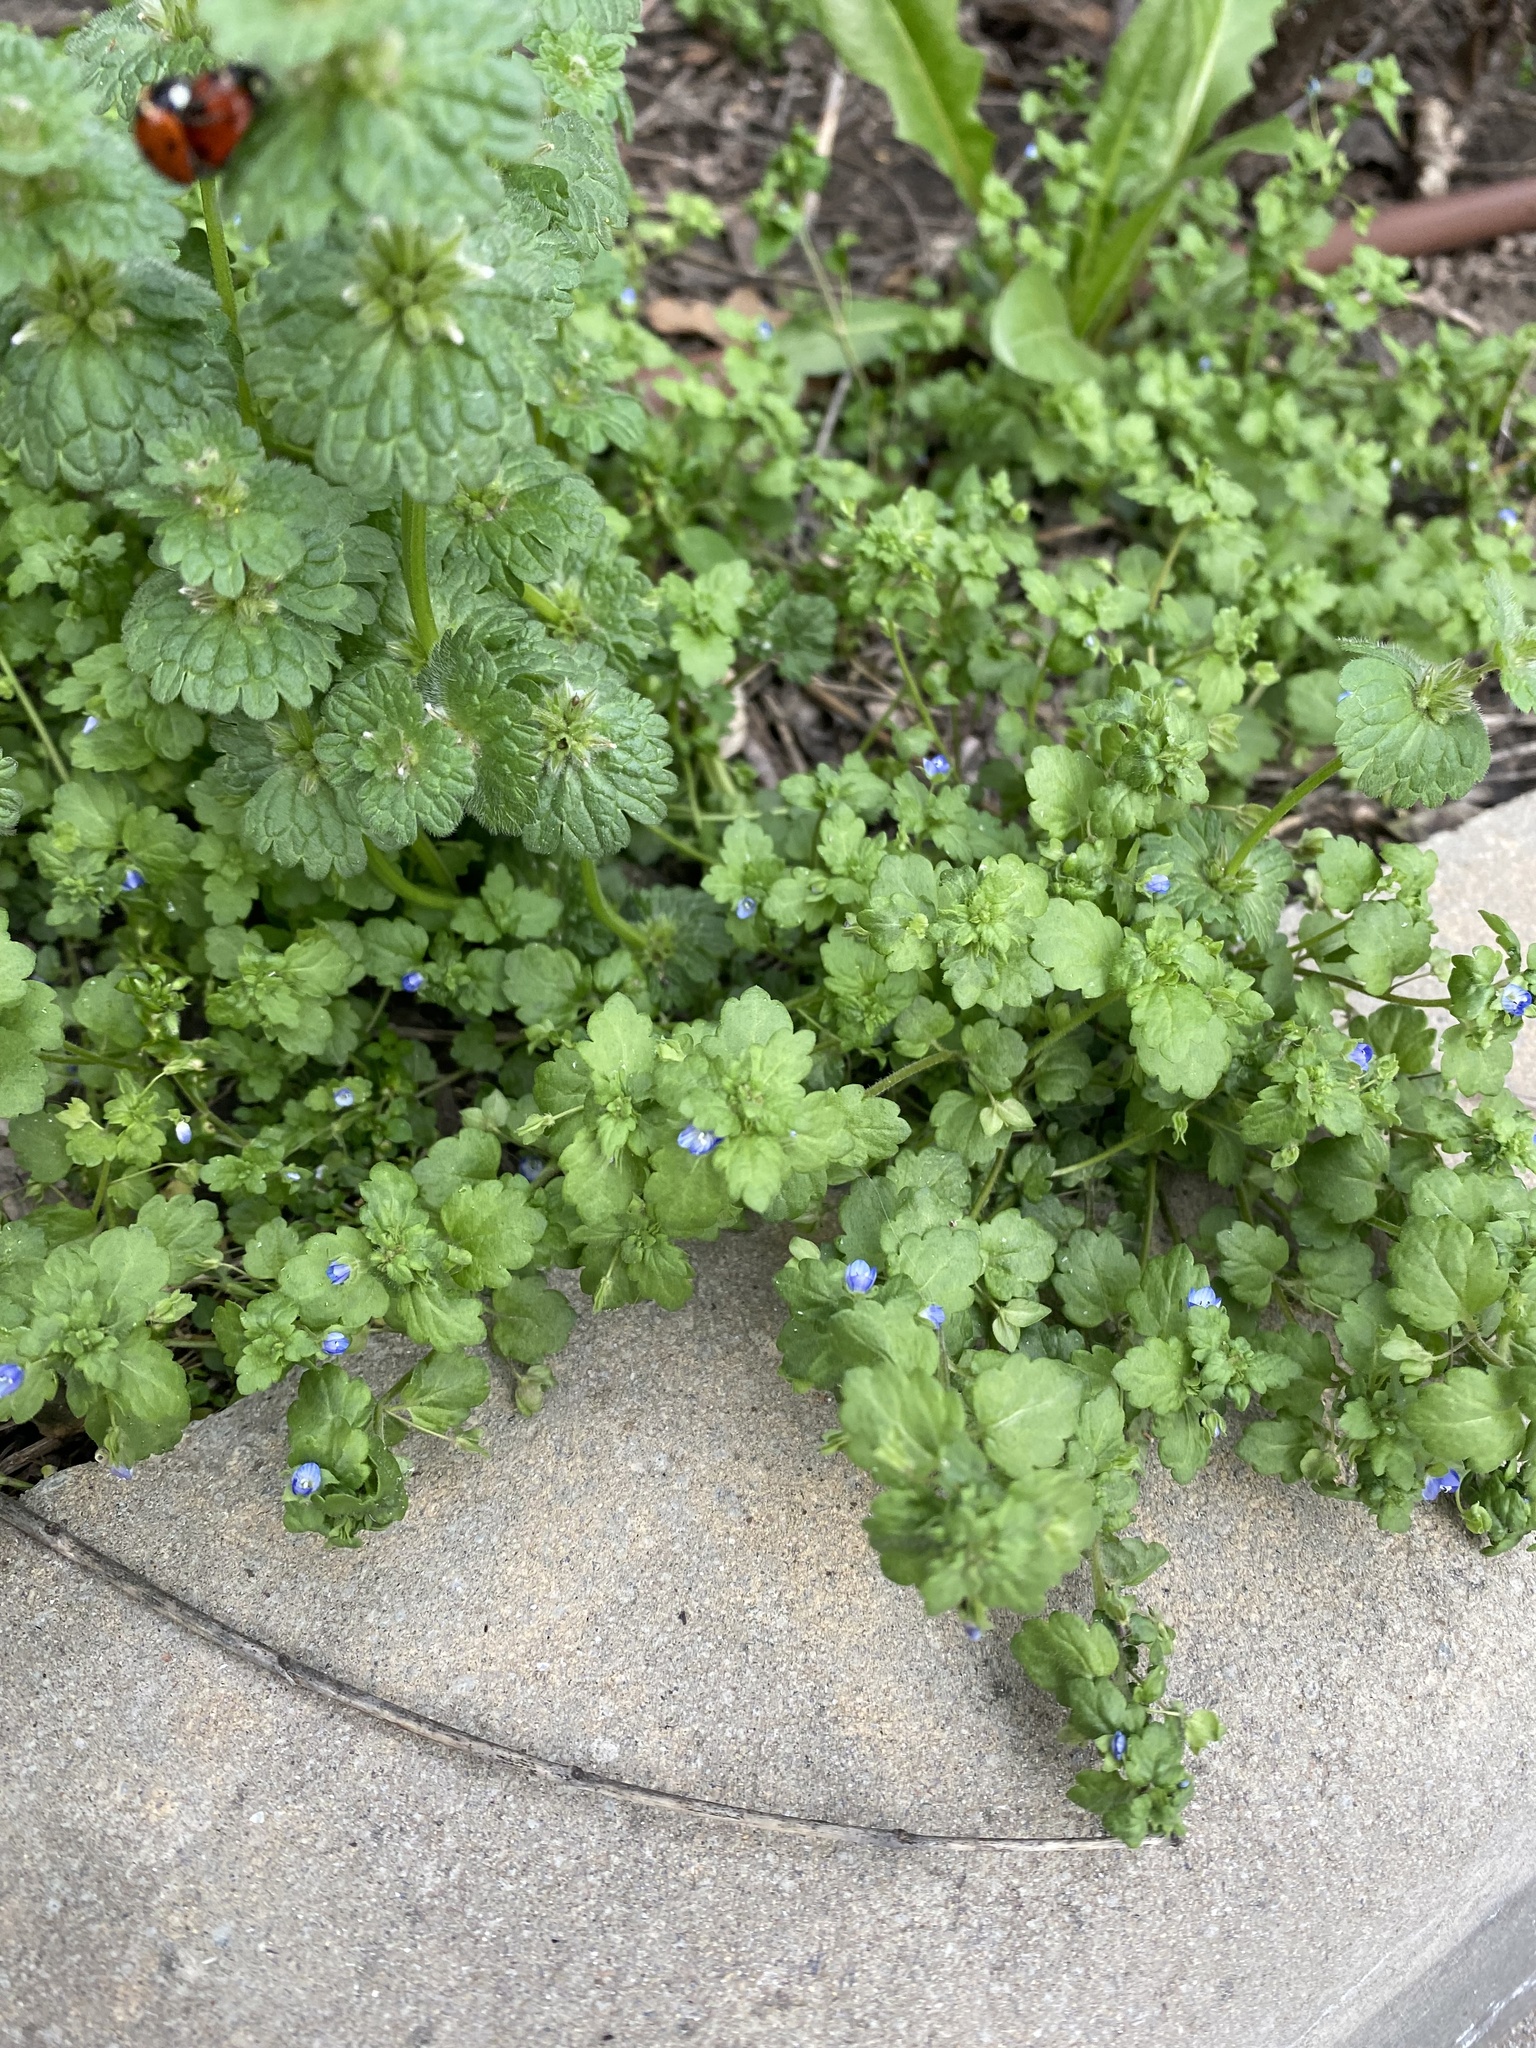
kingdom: Plantae
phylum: Tracheophyta
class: Magnoliopsida
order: Lamiales
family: Plantaginaceae
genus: Veronica
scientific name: Veronica polita
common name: Grey field-speedwell
